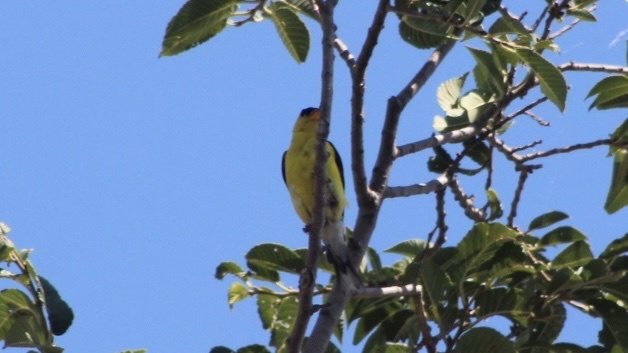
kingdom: Animalia
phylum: Chordata
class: Aves
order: Passeriformes
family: Fringillidae
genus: Spinus
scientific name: Spinus tristis
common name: American goldfinch
